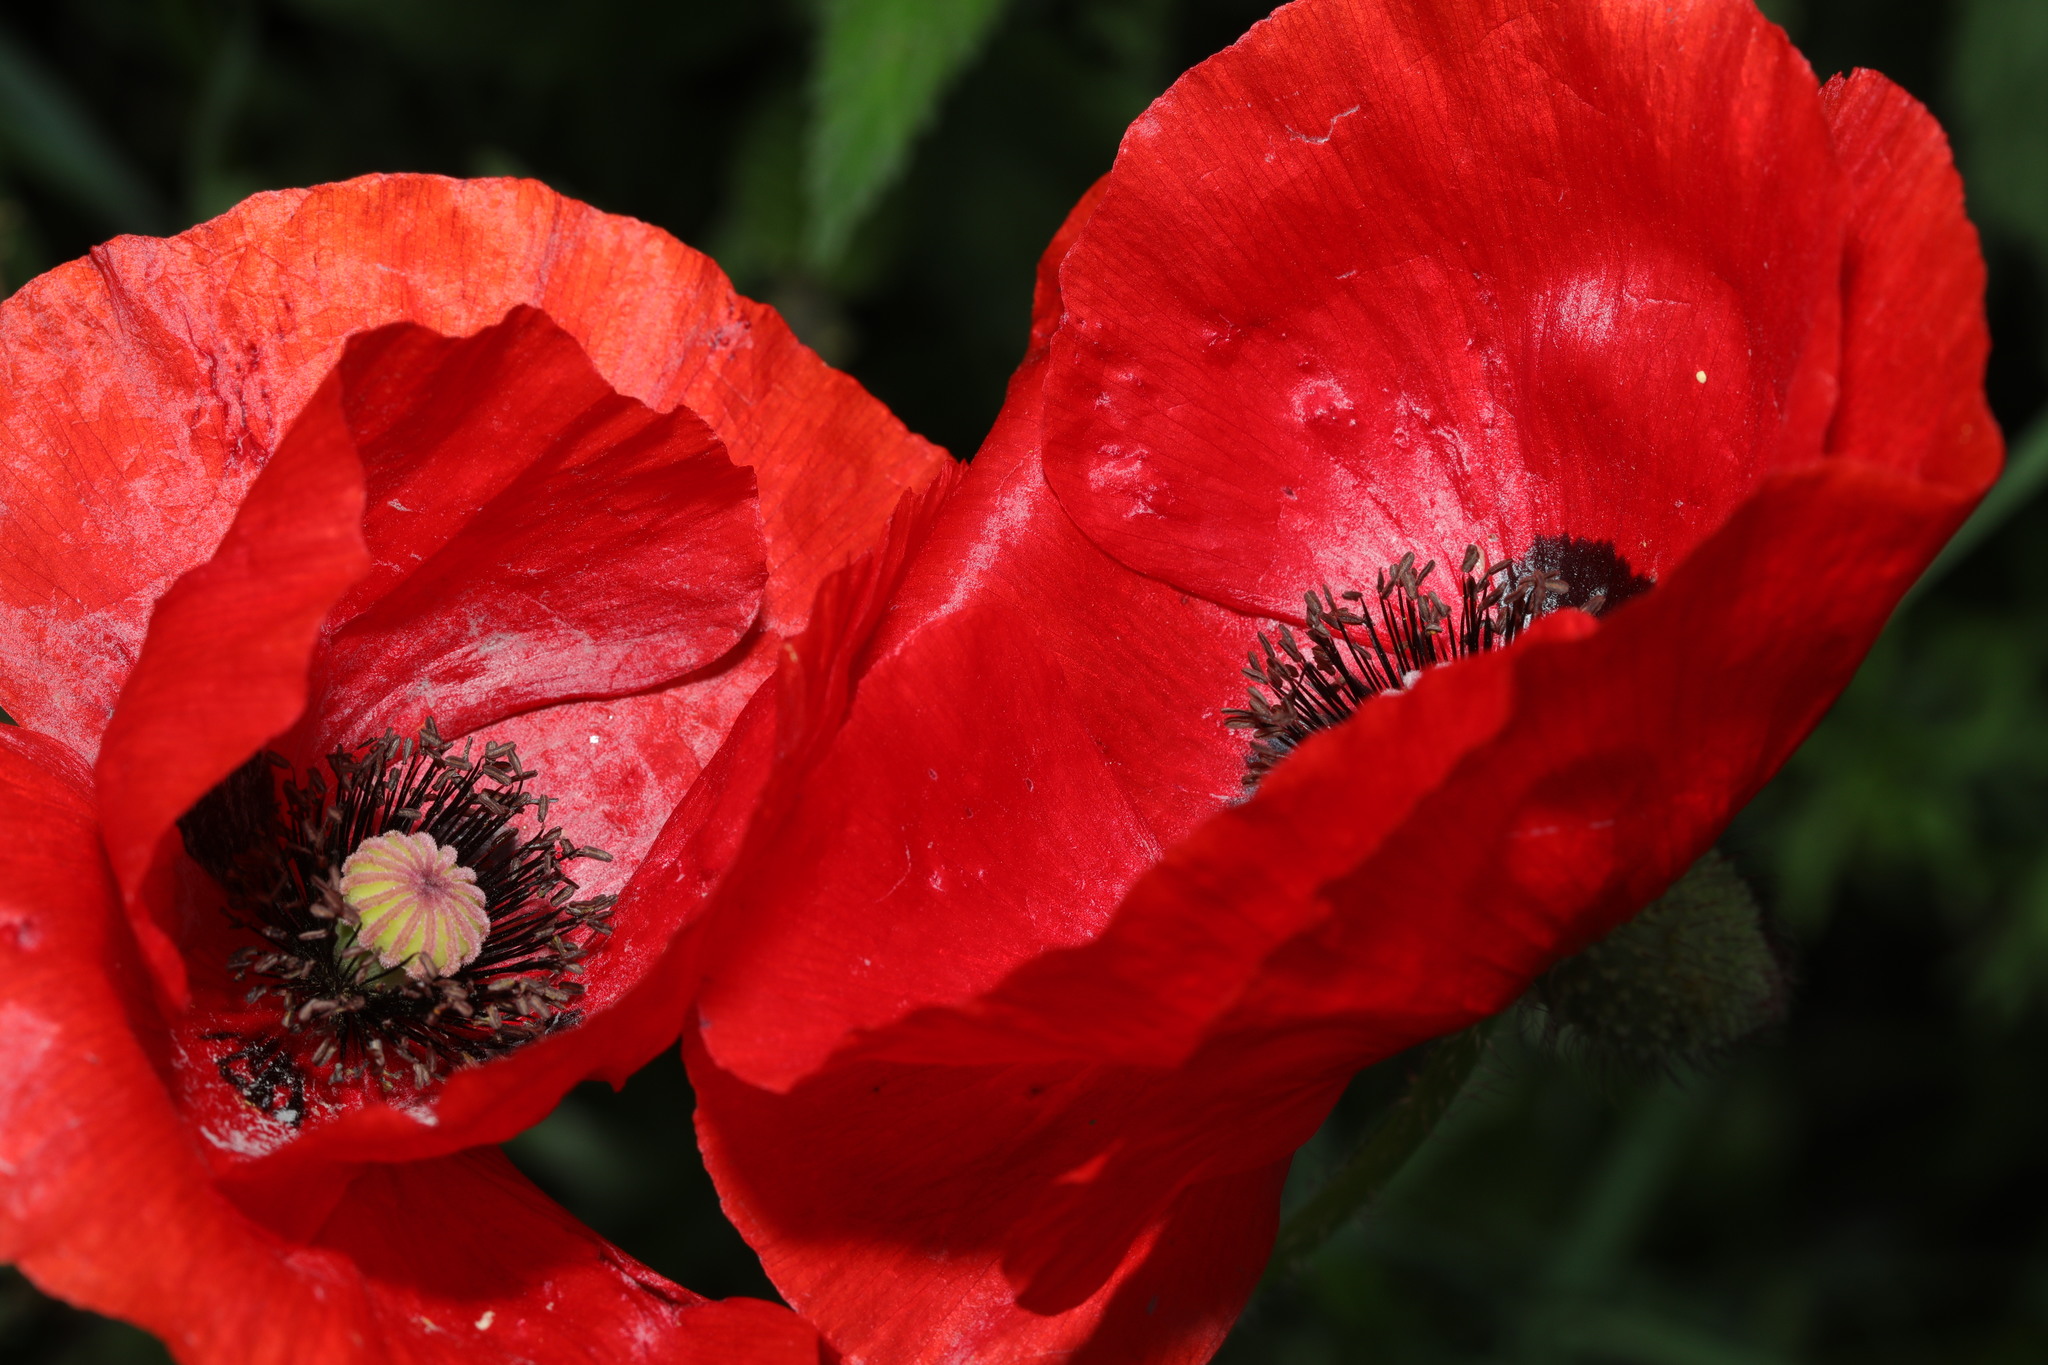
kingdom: Plantae
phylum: Tracheophyta
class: Magnoliopsida
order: Ranunculales
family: Papaveraceae
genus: Papaver
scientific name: Papaver rhoeas
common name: Corn poppy
